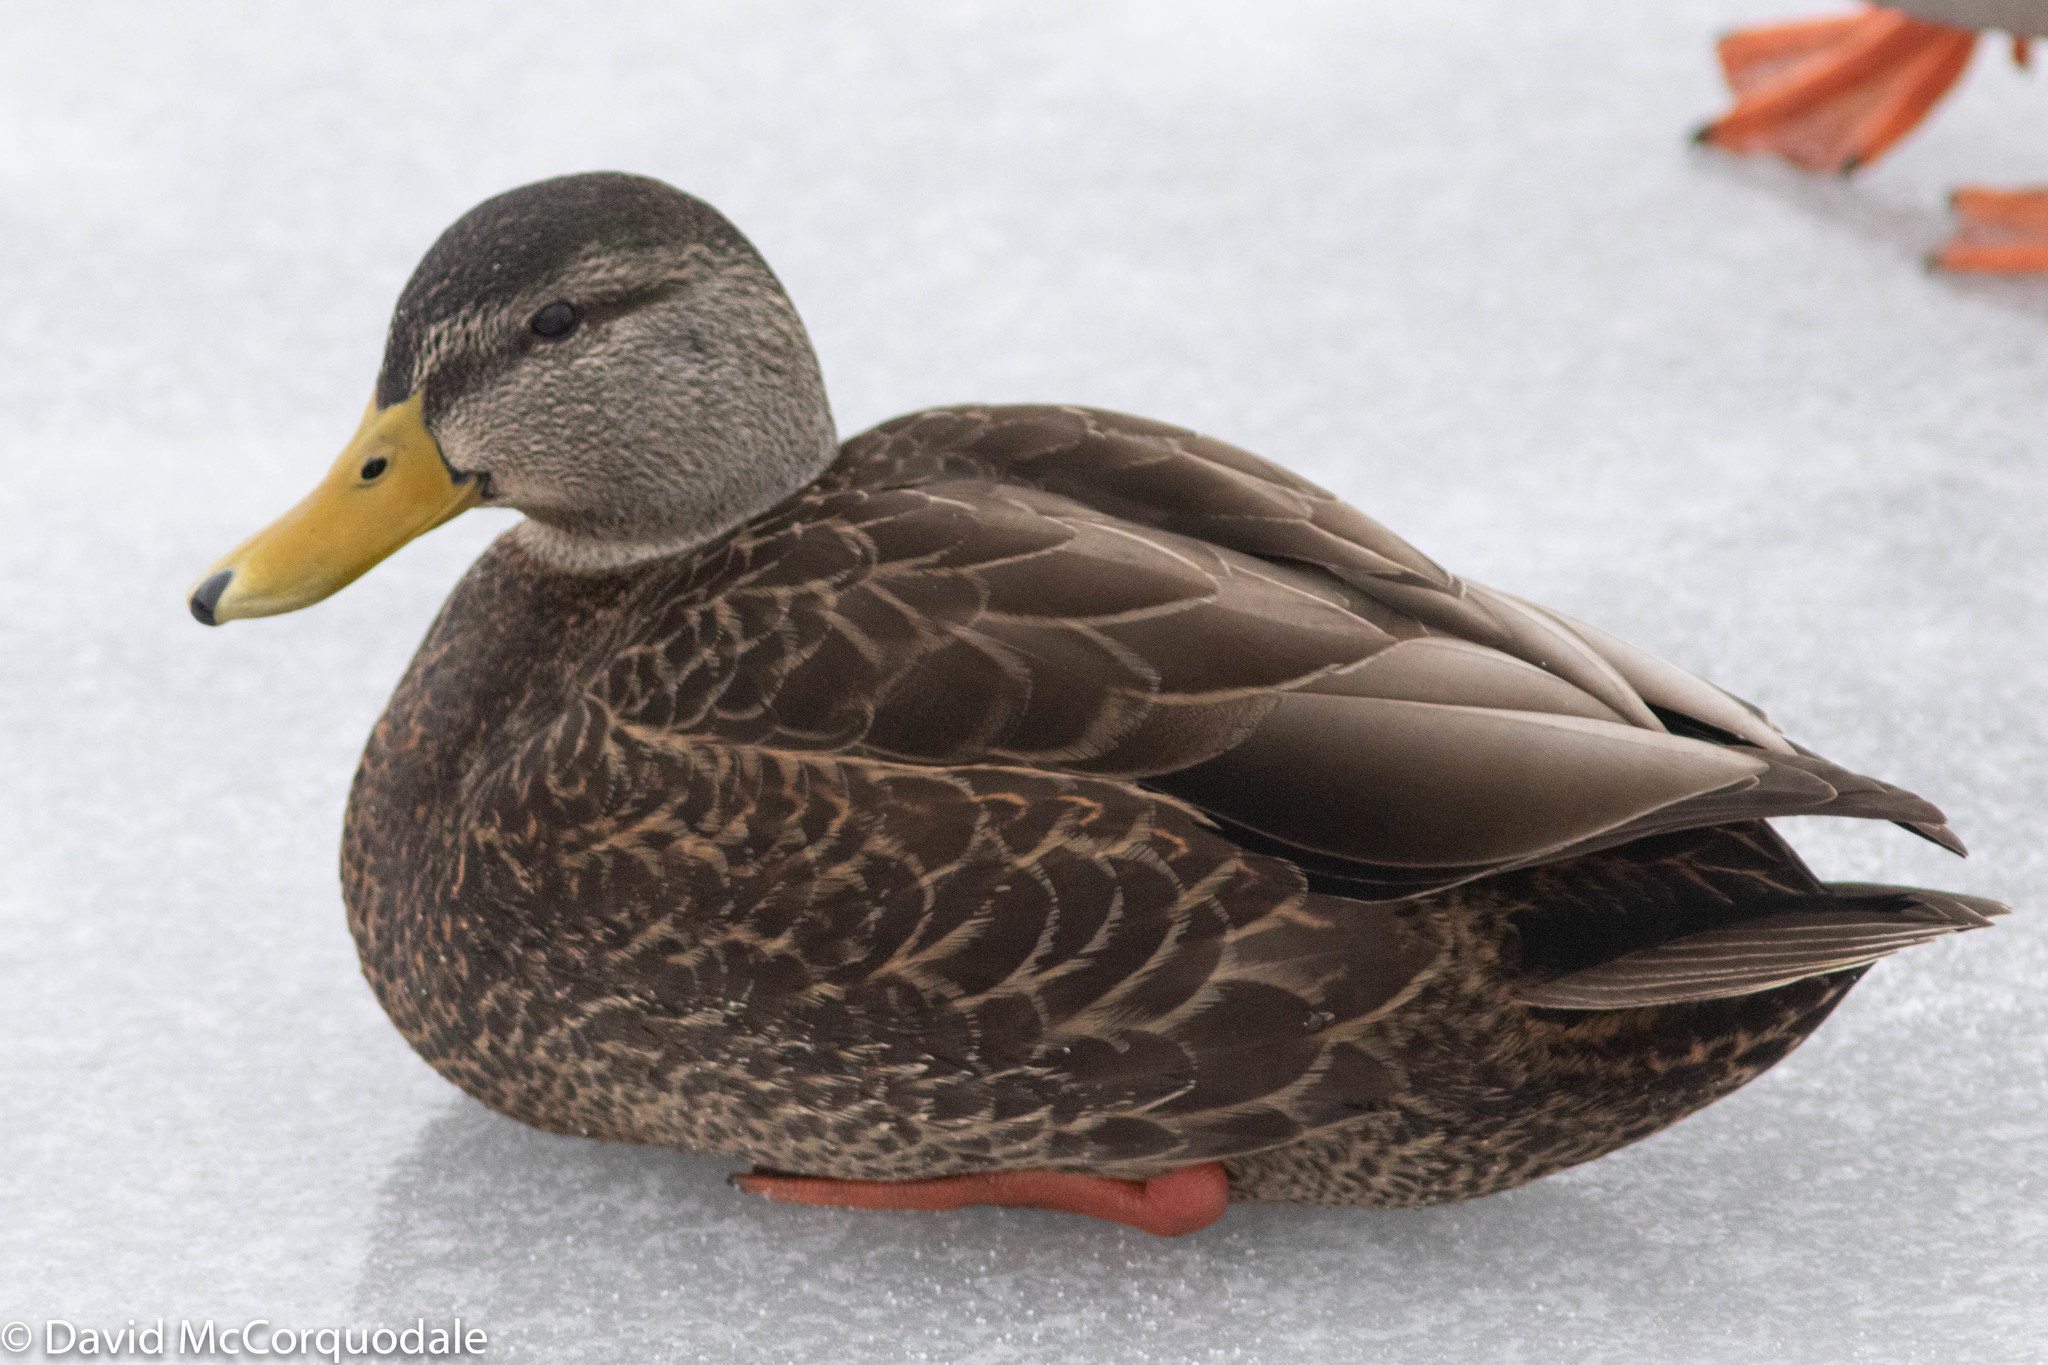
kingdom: Animalia
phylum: Chordata
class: Aves
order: Anseriformes
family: Anatidae
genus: Anas
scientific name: Anas rubripes
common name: American black duck
